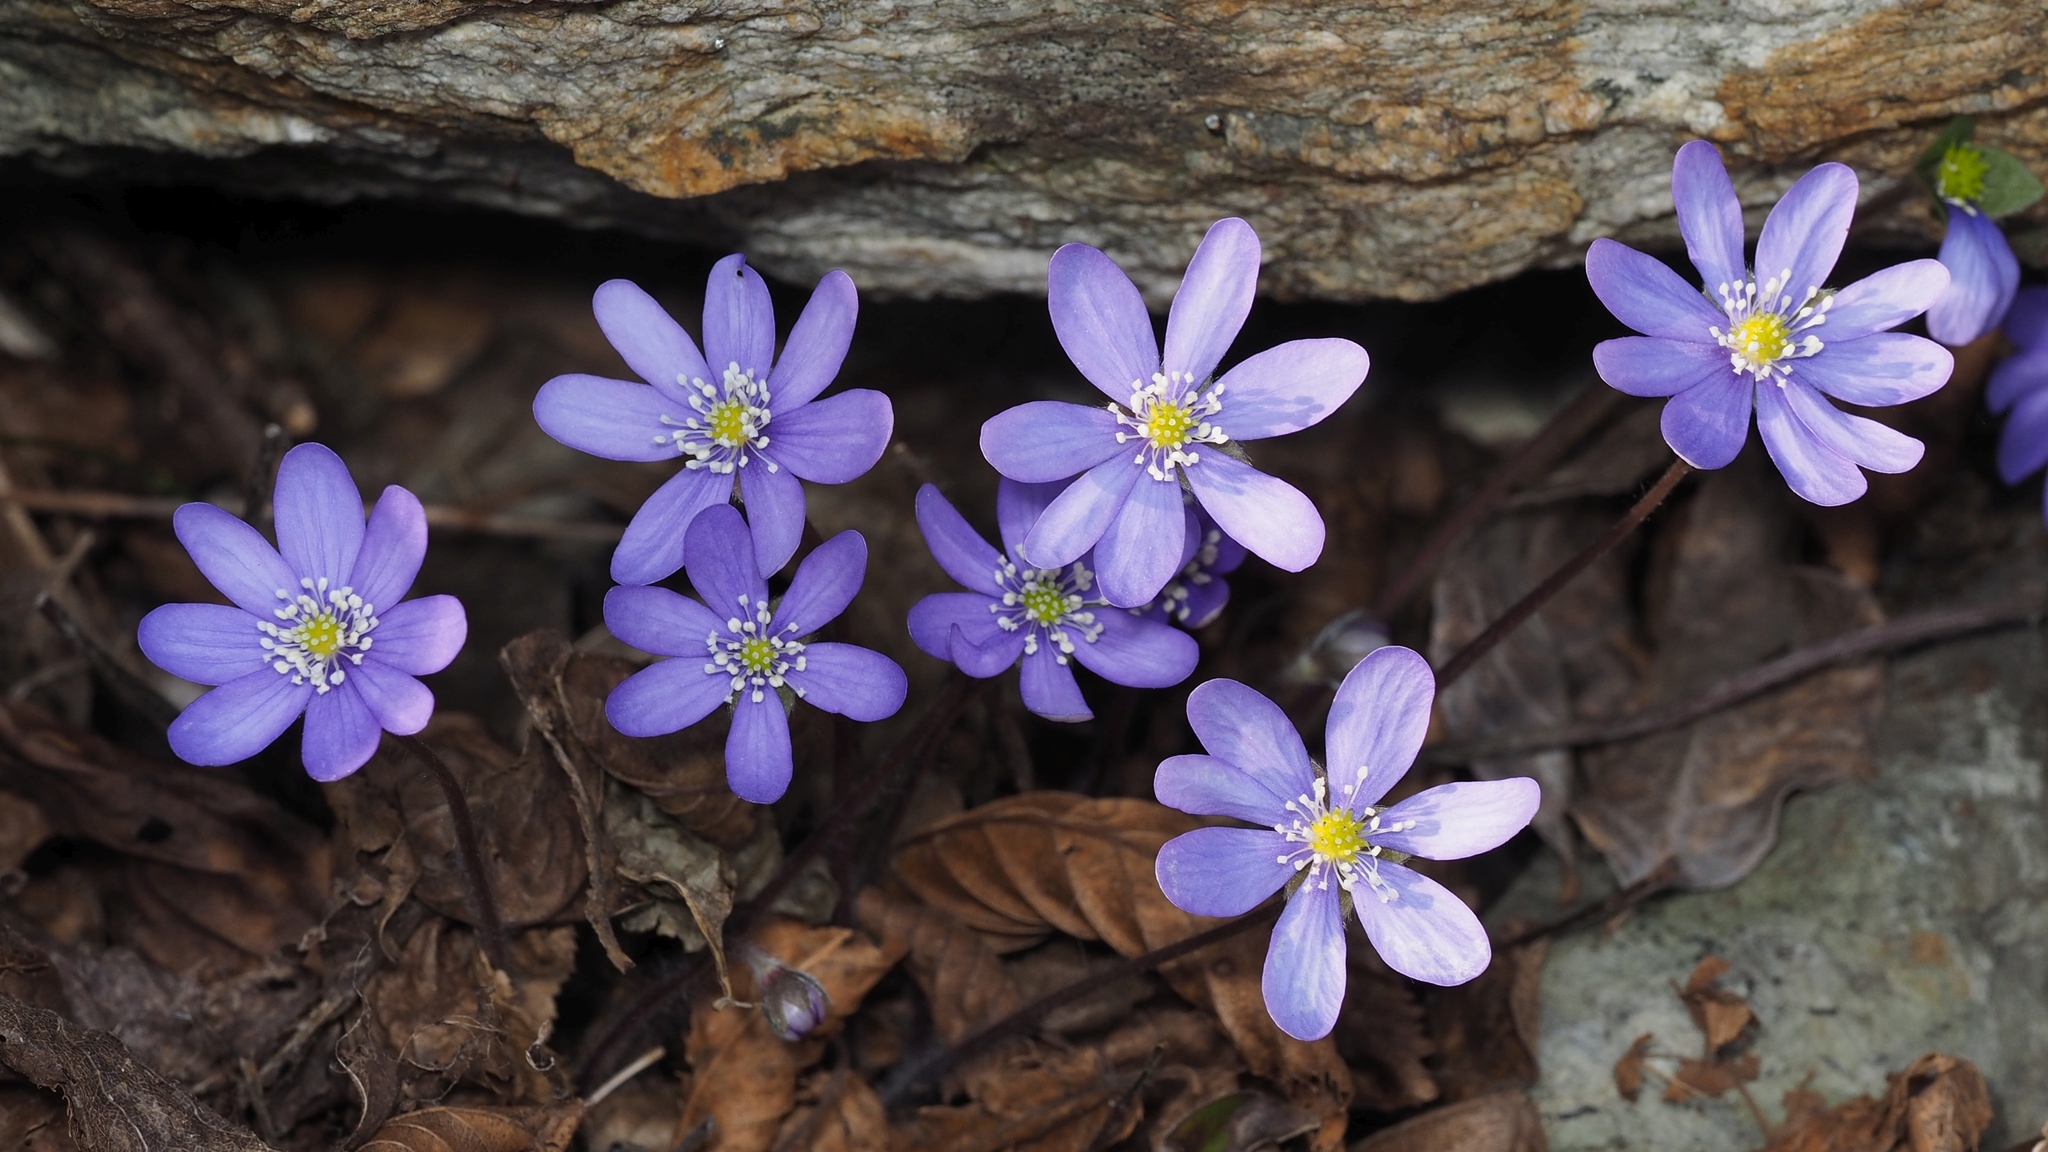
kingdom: Plantae
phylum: Tracheophyta
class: Magnoliopsida
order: Ranunculales
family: Ranunculaceae
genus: Hepatica
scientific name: Hepatica nobilis
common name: Liverleaf
